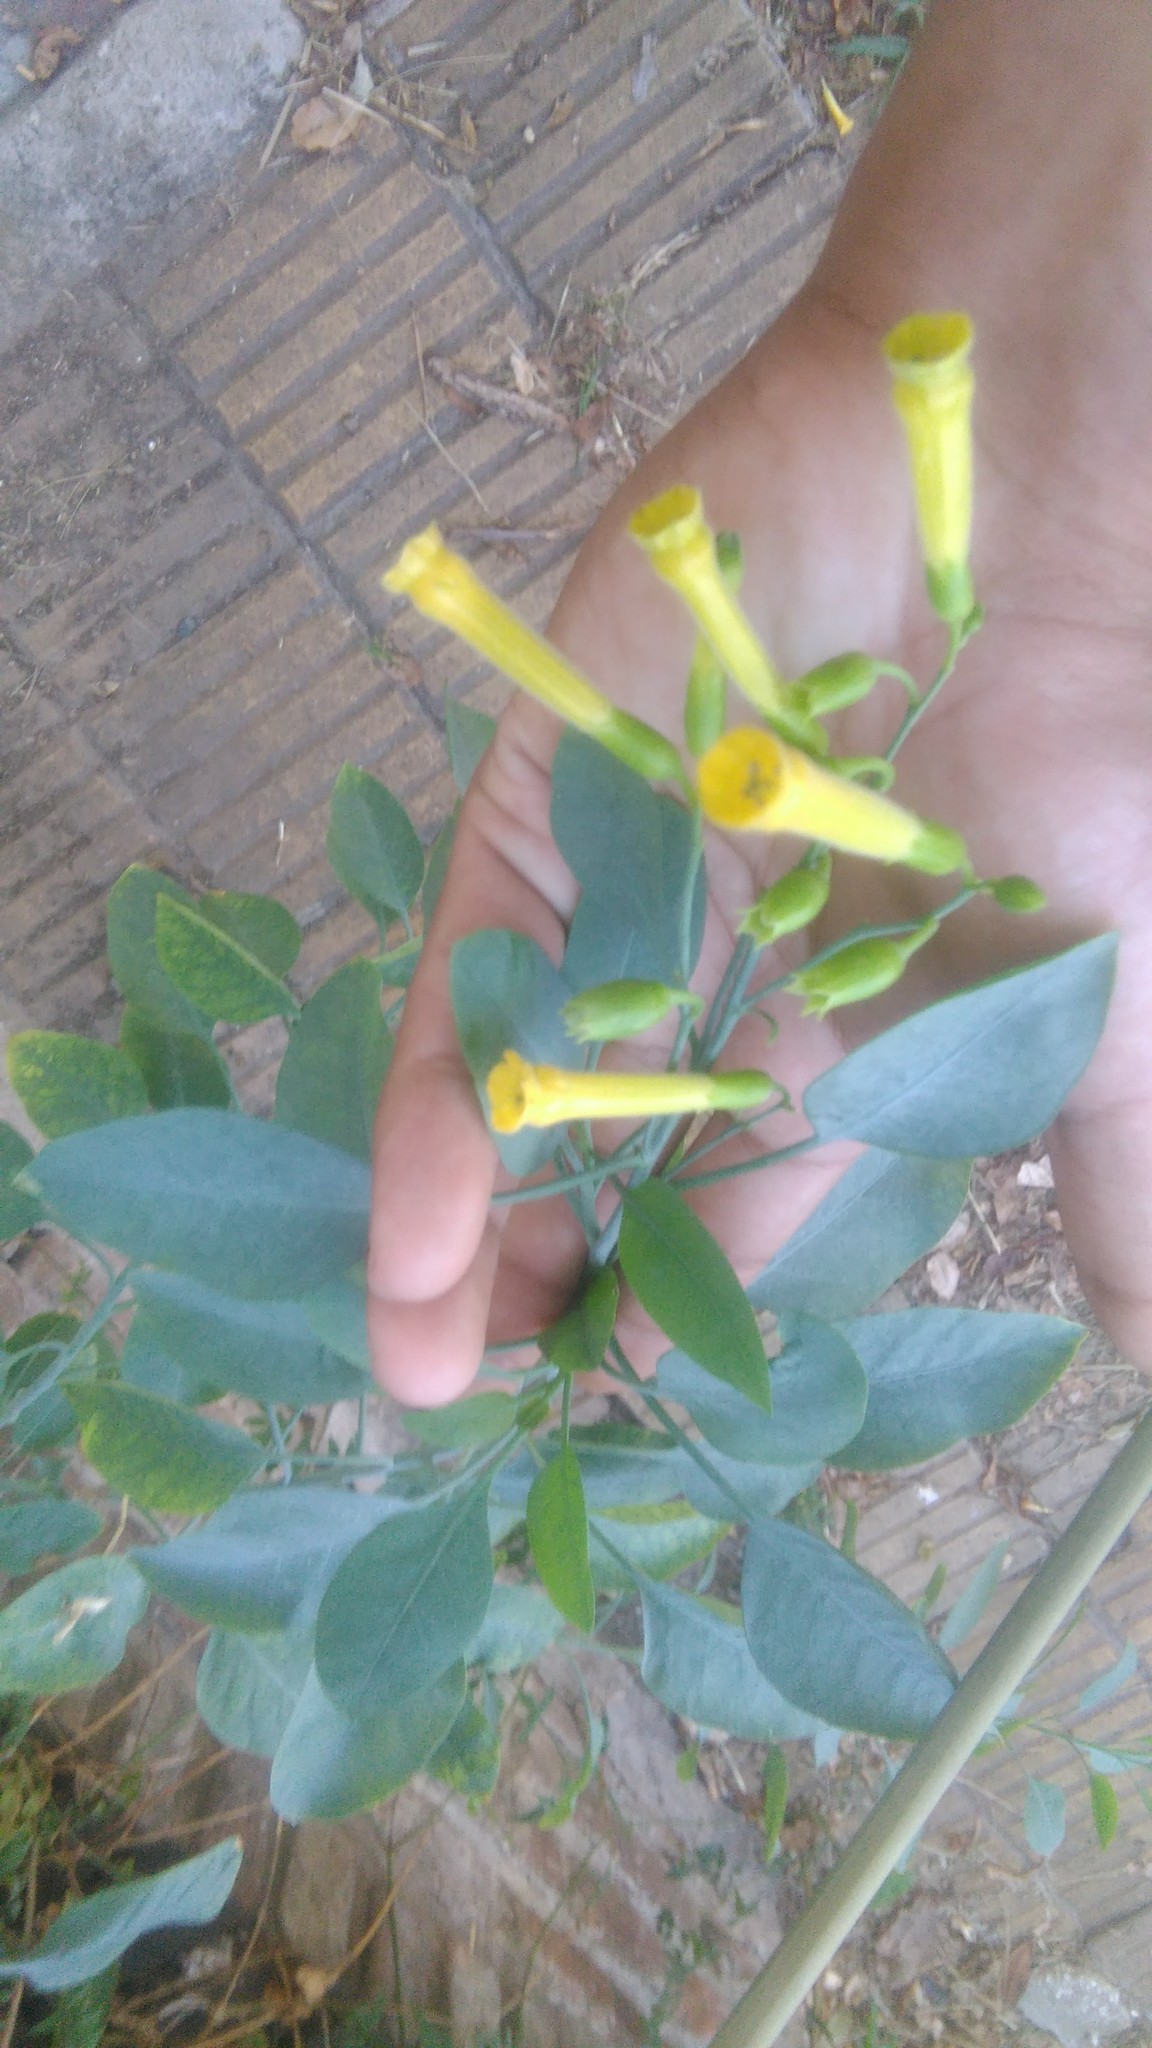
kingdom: Plantae
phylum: Tracheophyta
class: Magnoliopsida
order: Solanales
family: Solanaceae
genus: Nicotiana
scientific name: Nicotiana glauca
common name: Tree tobacco
